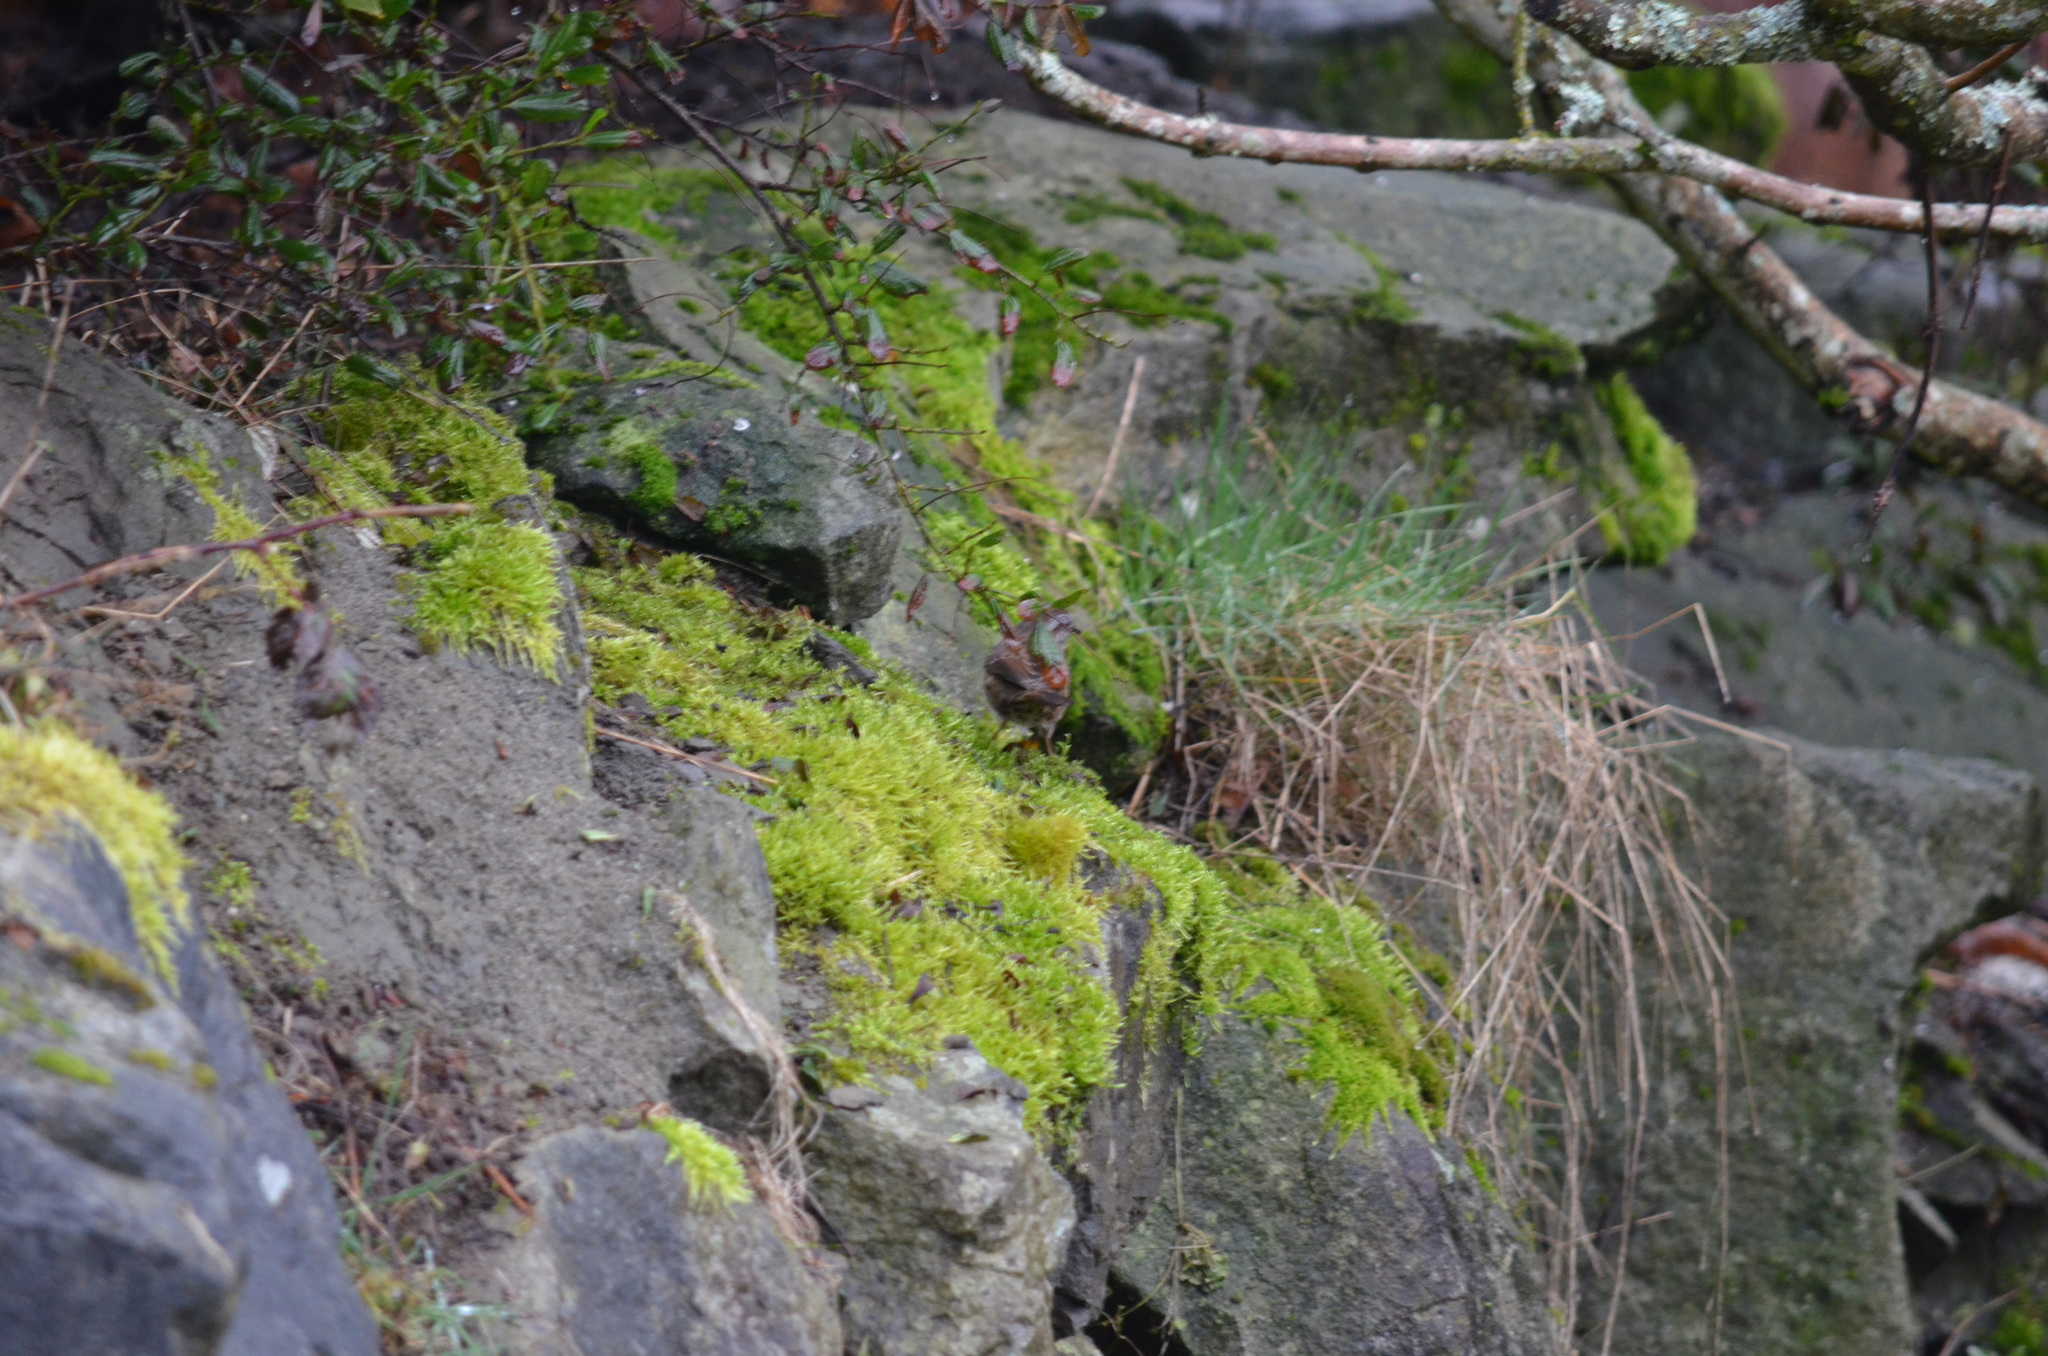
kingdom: Animalia
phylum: Chordata
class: Aves
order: Passeriformes
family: Passerellidae
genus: Melospiza
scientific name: Melospiza melodia
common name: Song sparrow
